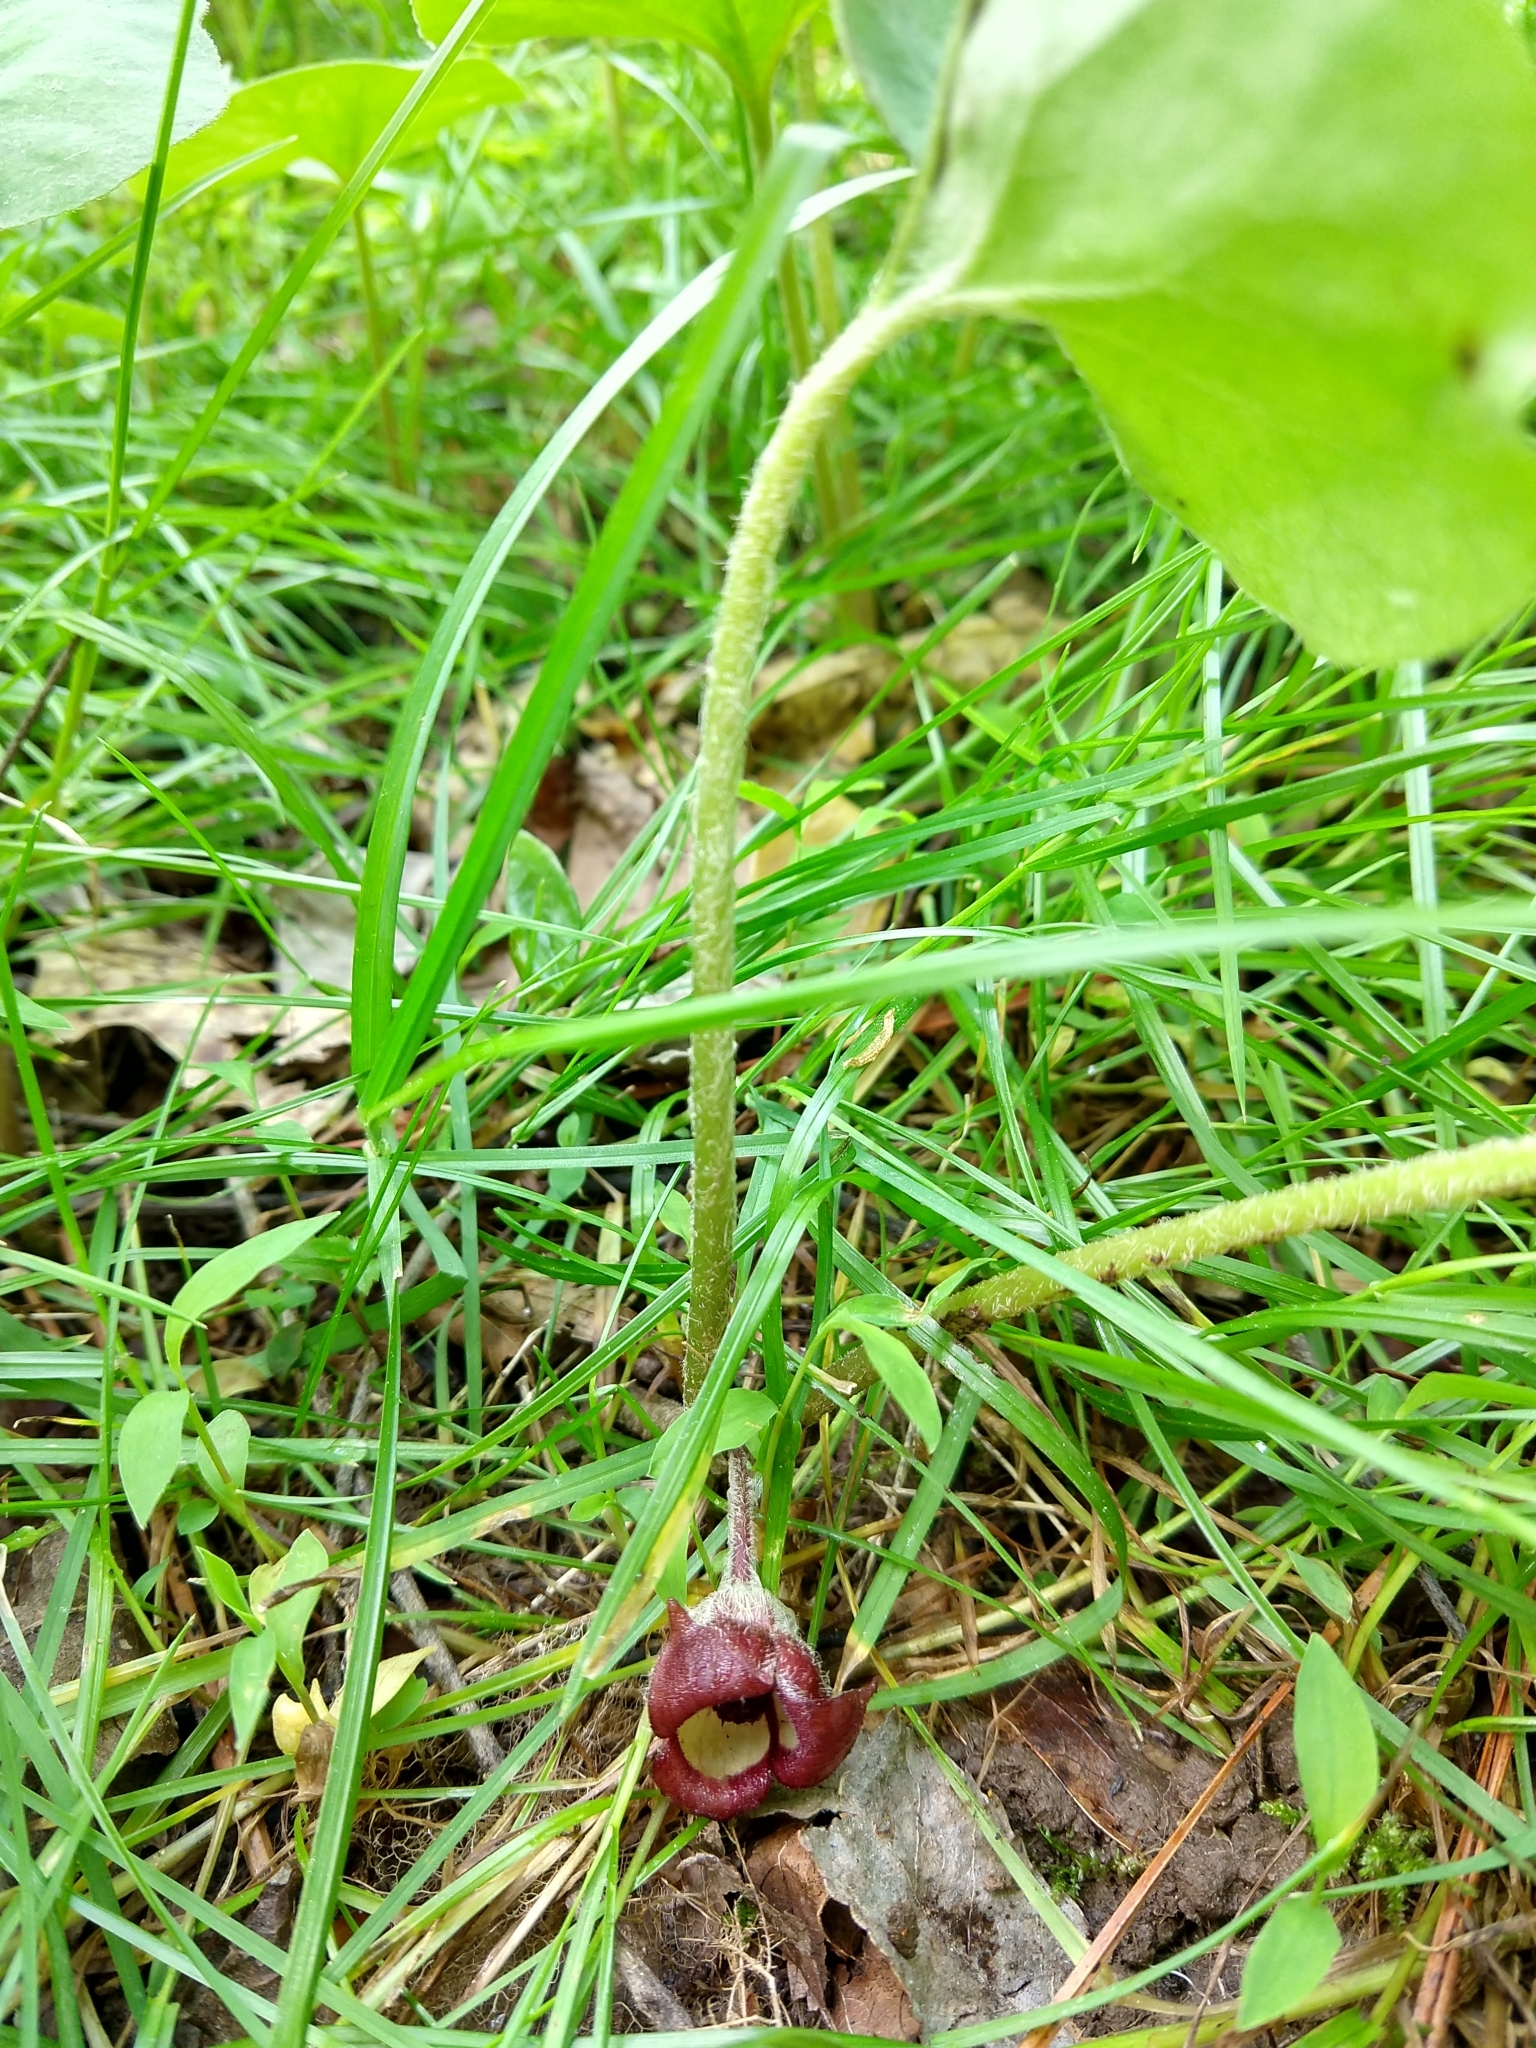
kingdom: Plantae
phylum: Tracheophyta
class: Magnoliopsida
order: Piperales
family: Aristolochiaceae
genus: Asarum
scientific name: Asarum canadense
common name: Wild ginger
